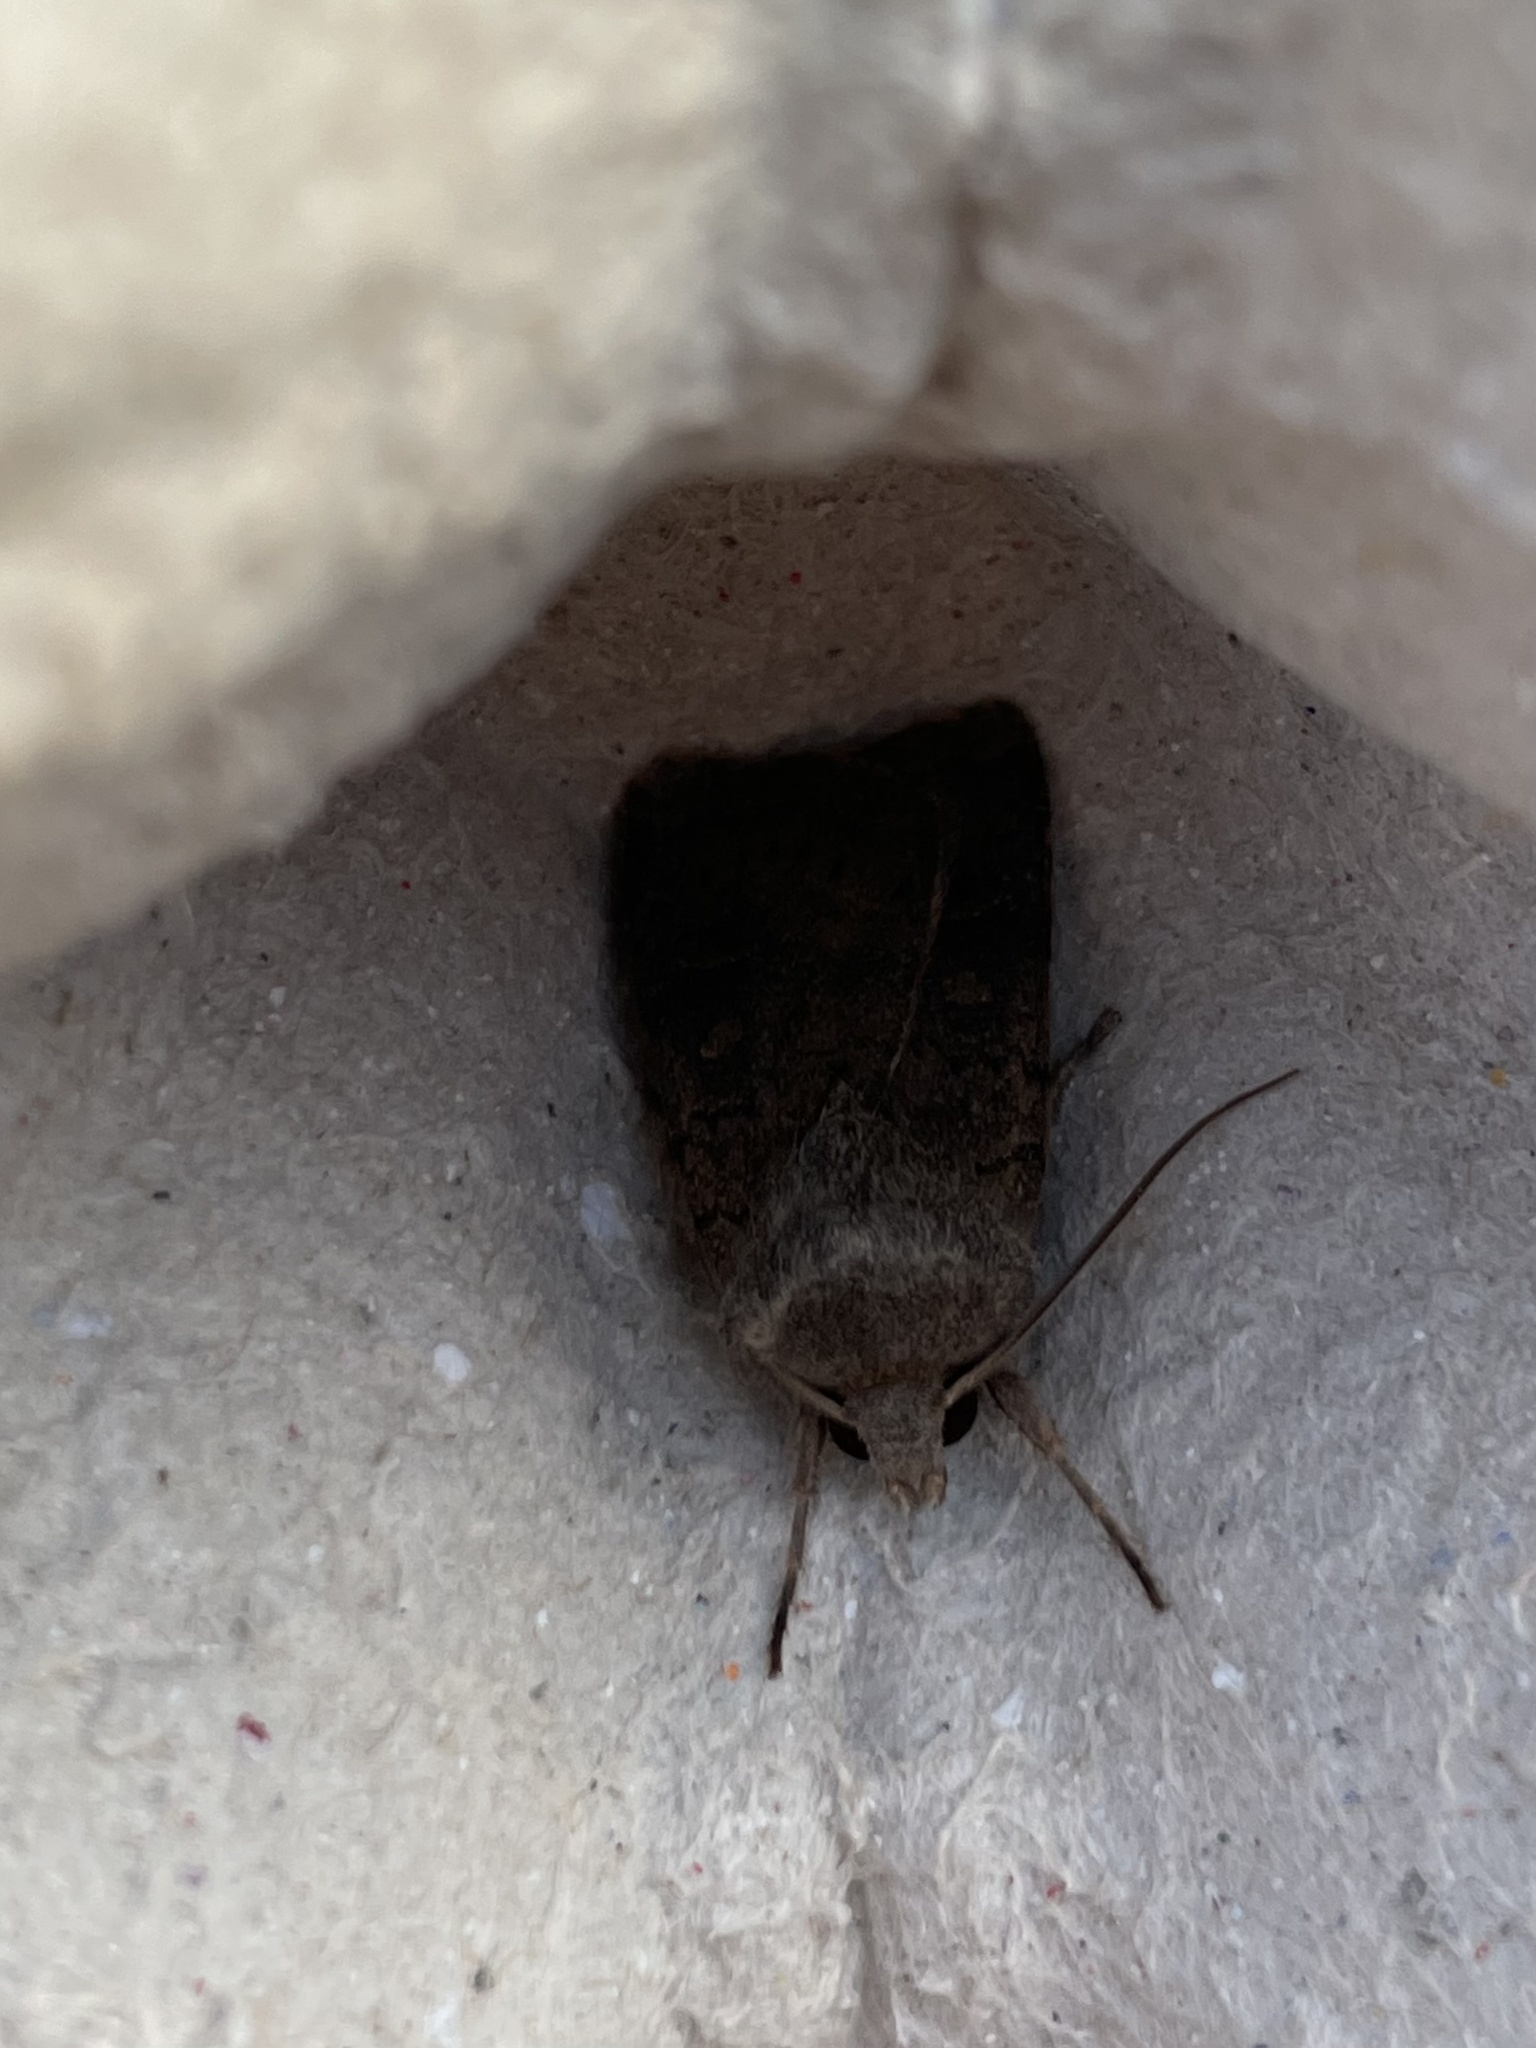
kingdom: Animalia
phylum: Arthropoda
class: Insecta
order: Lepidoptera
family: Noctuidae
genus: Xestia
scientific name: Xestia xanthographa
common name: Square-spot rustic
